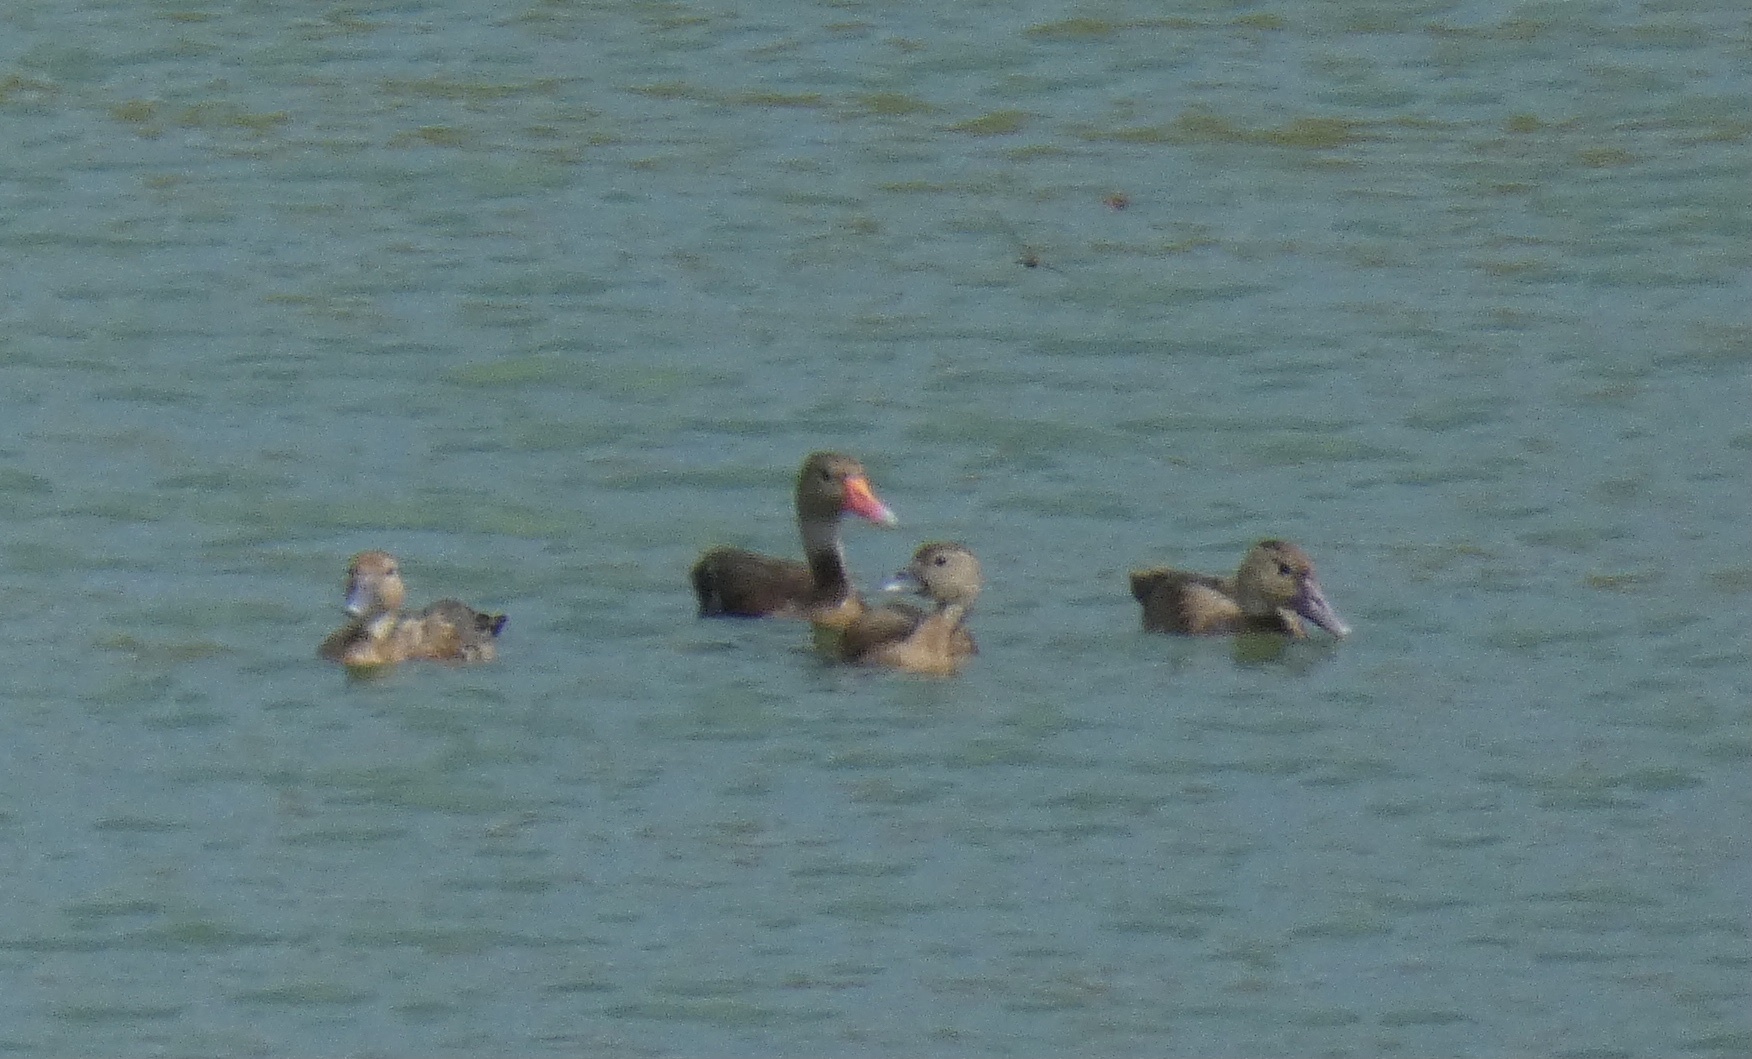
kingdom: Animalia
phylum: Chordata
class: Aves
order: Anseriformes
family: Anatidae
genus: Dendrocygna
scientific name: Dendrocygna autumnalis
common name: Black-bellied whistling duck
